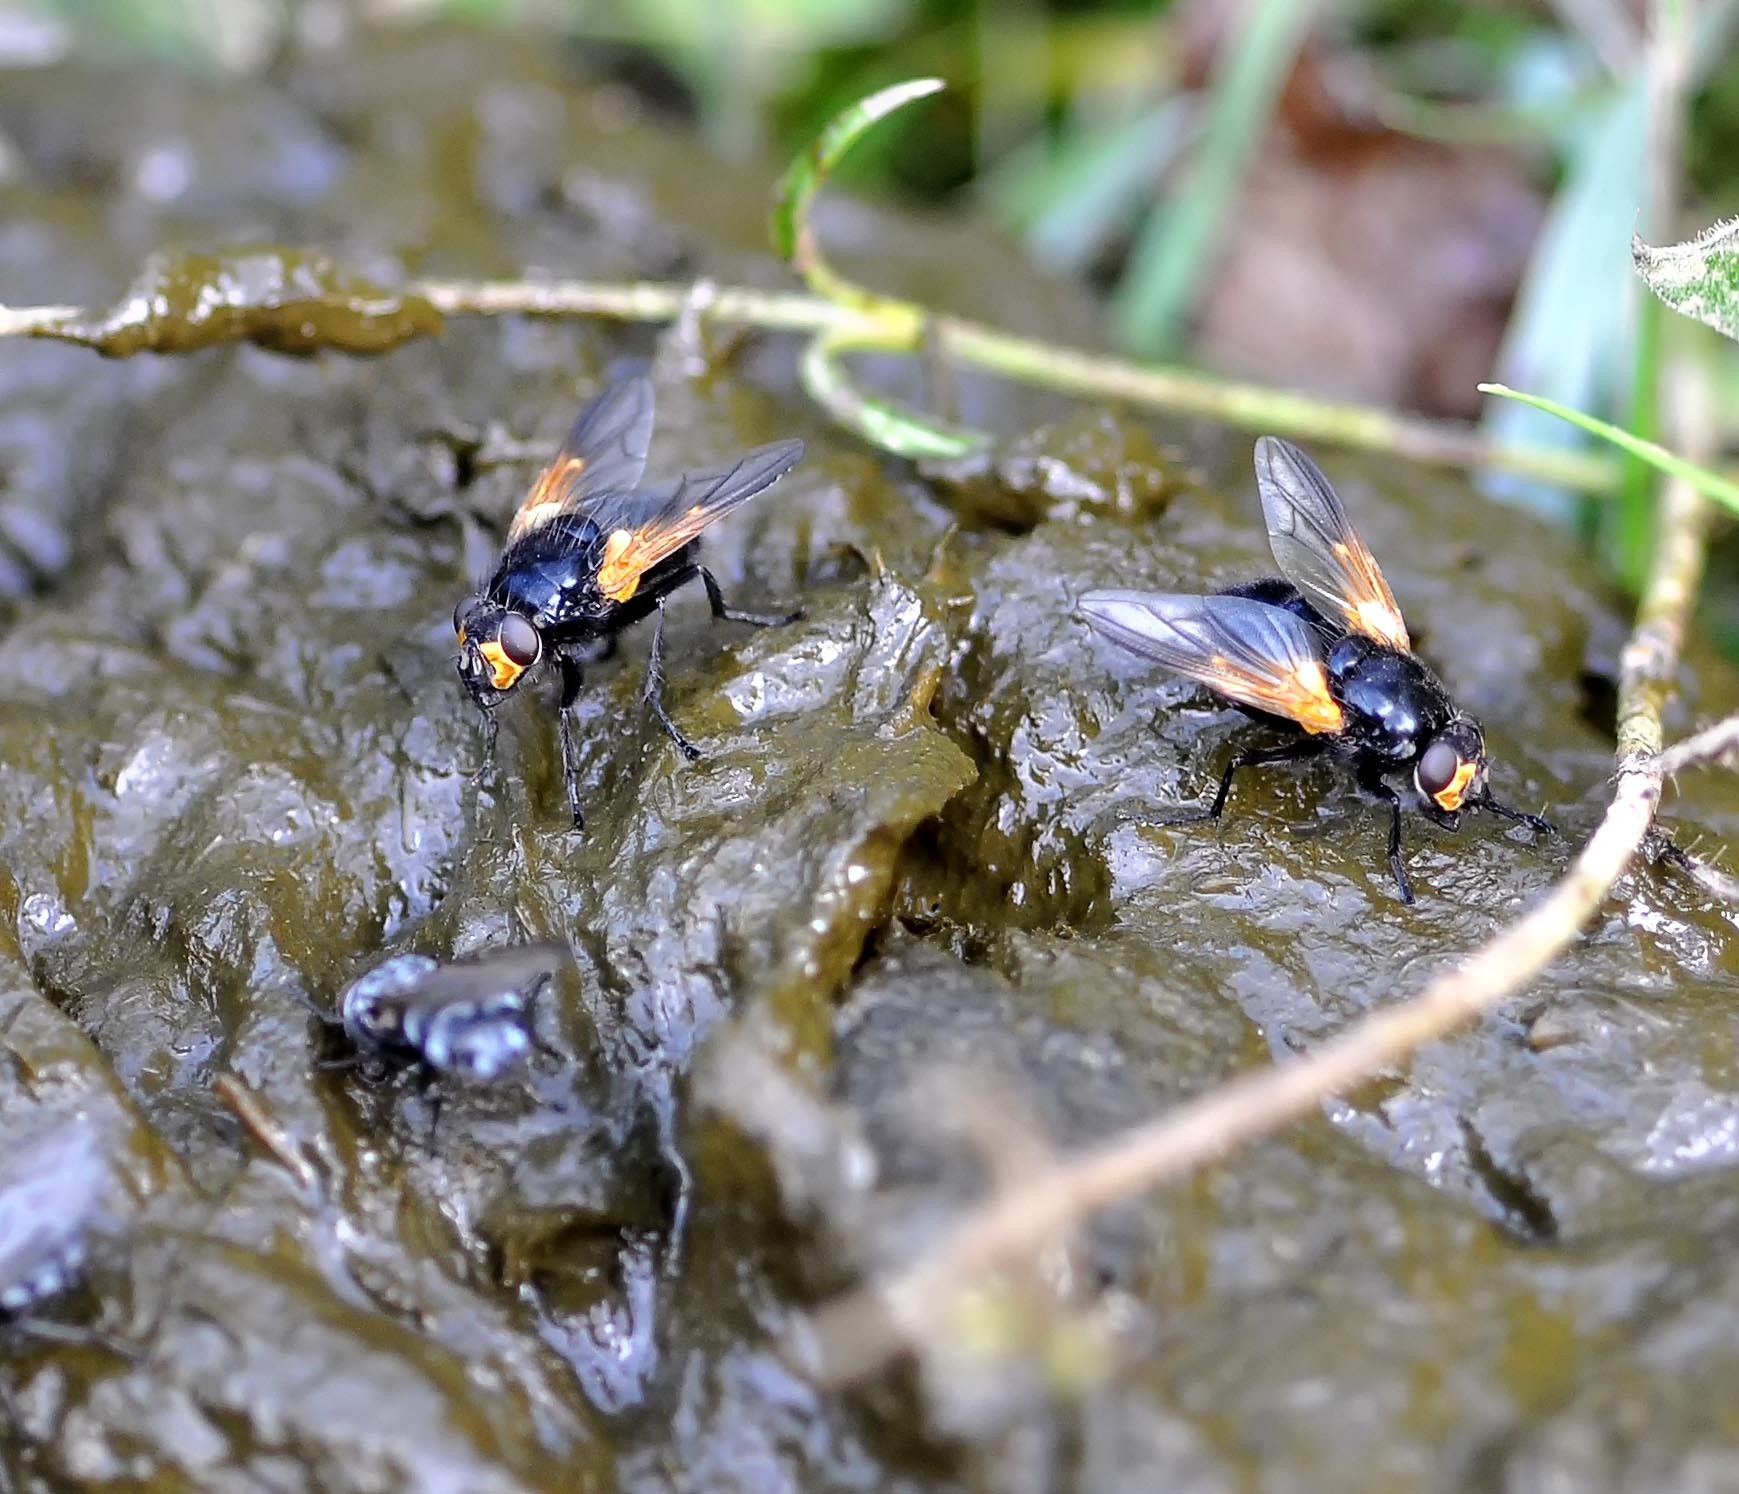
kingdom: Animalia
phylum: Arthropoda
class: Insecta
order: Diptera
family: Muscidae
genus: Mesembrina
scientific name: Mesembrina meridiana
